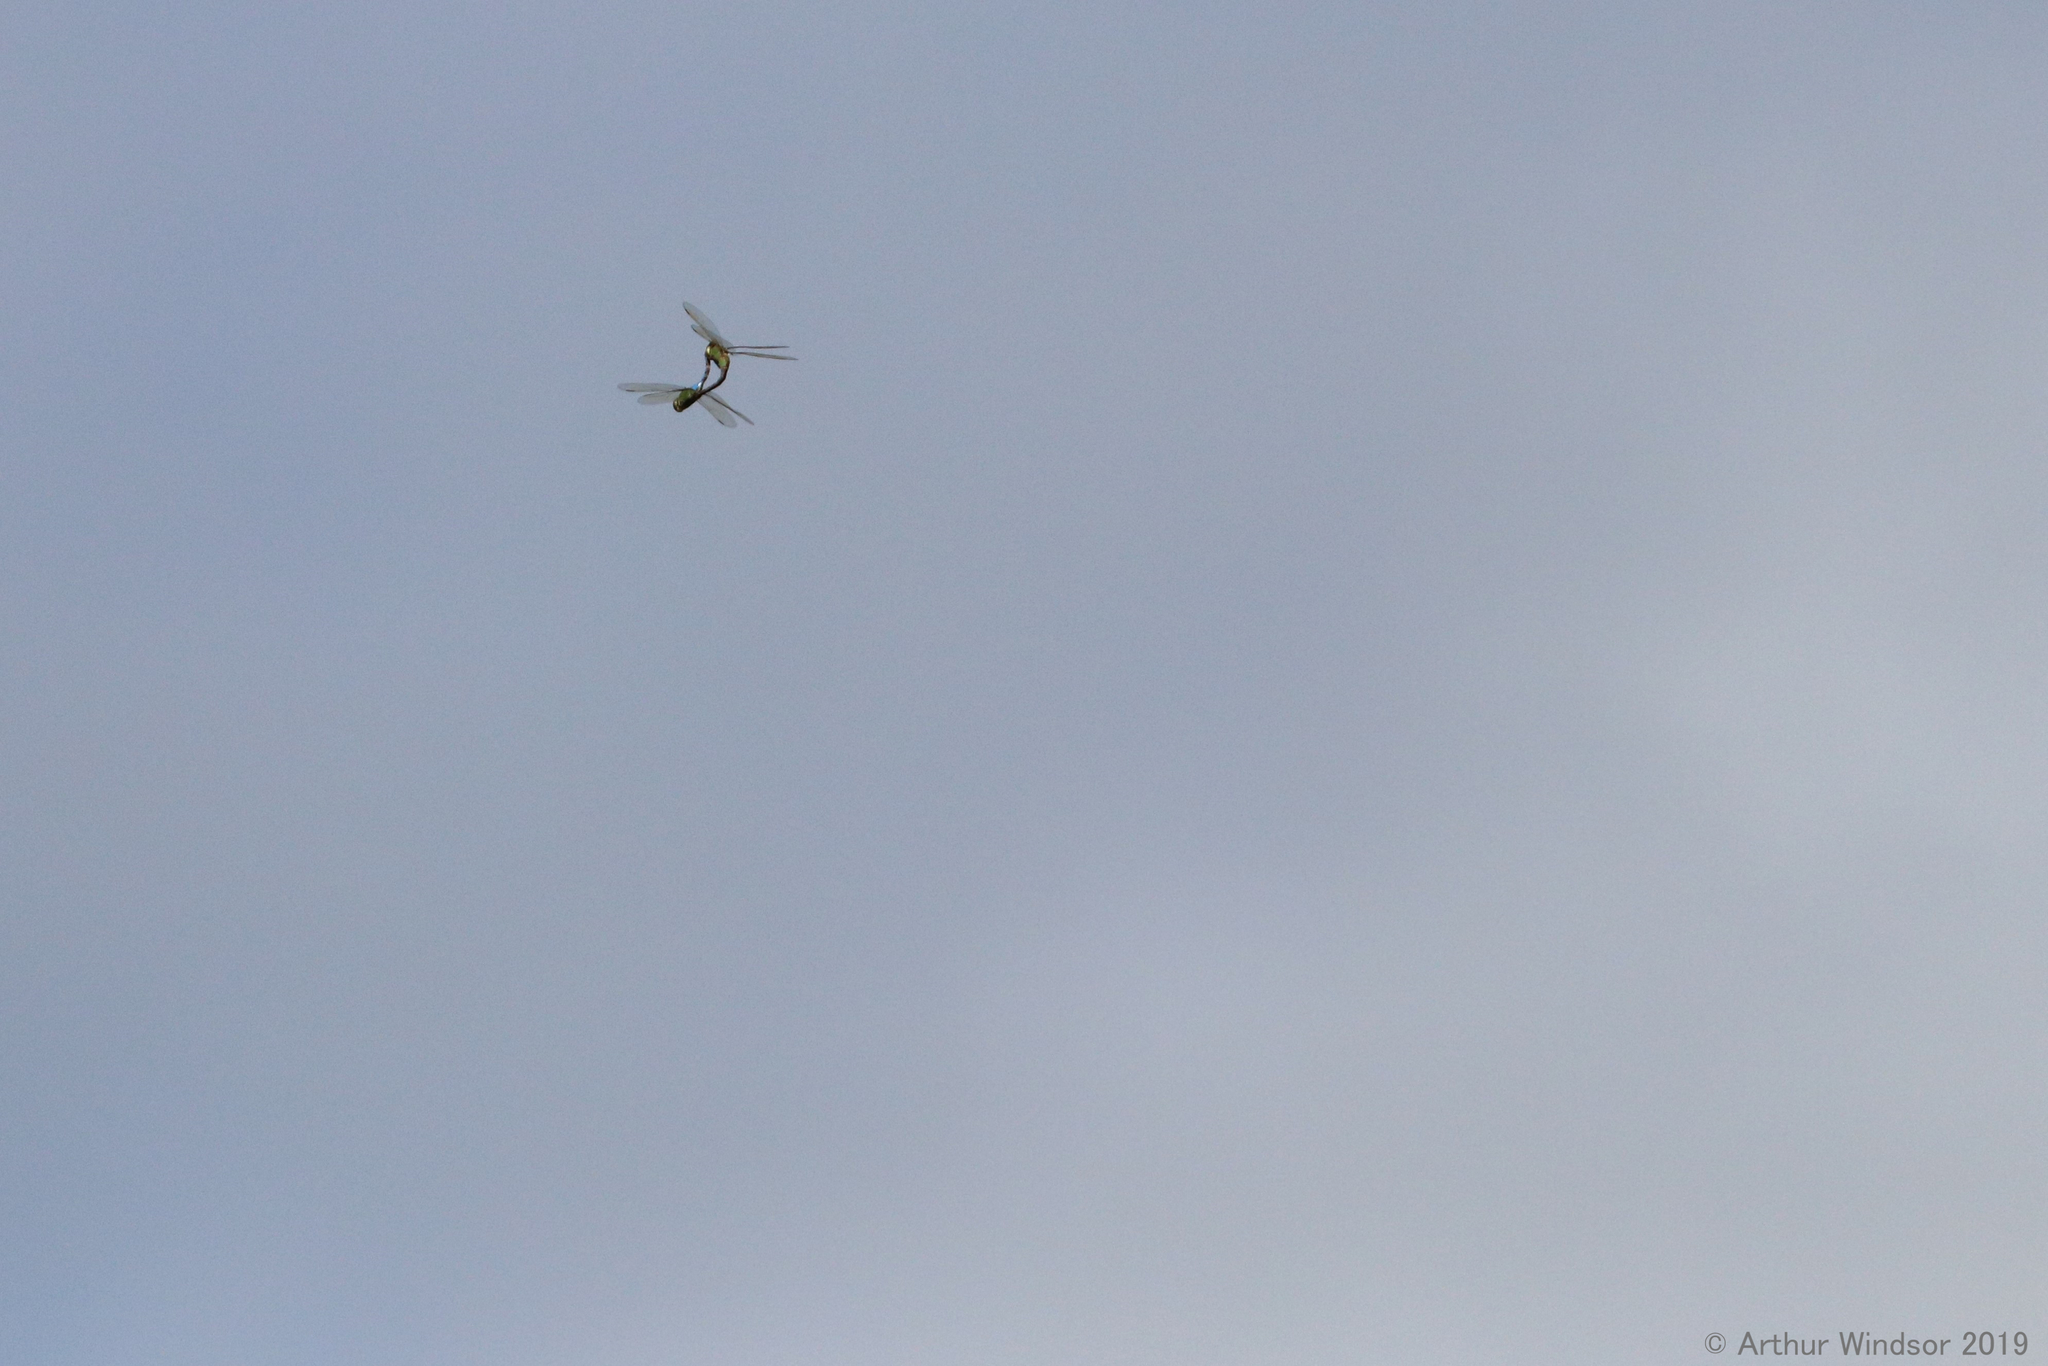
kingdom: Animalia
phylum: Arthropoda
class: Insecta
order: Odonata
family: Aeshnidae
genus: Anax
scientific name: Anax junius
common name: Common green darner
